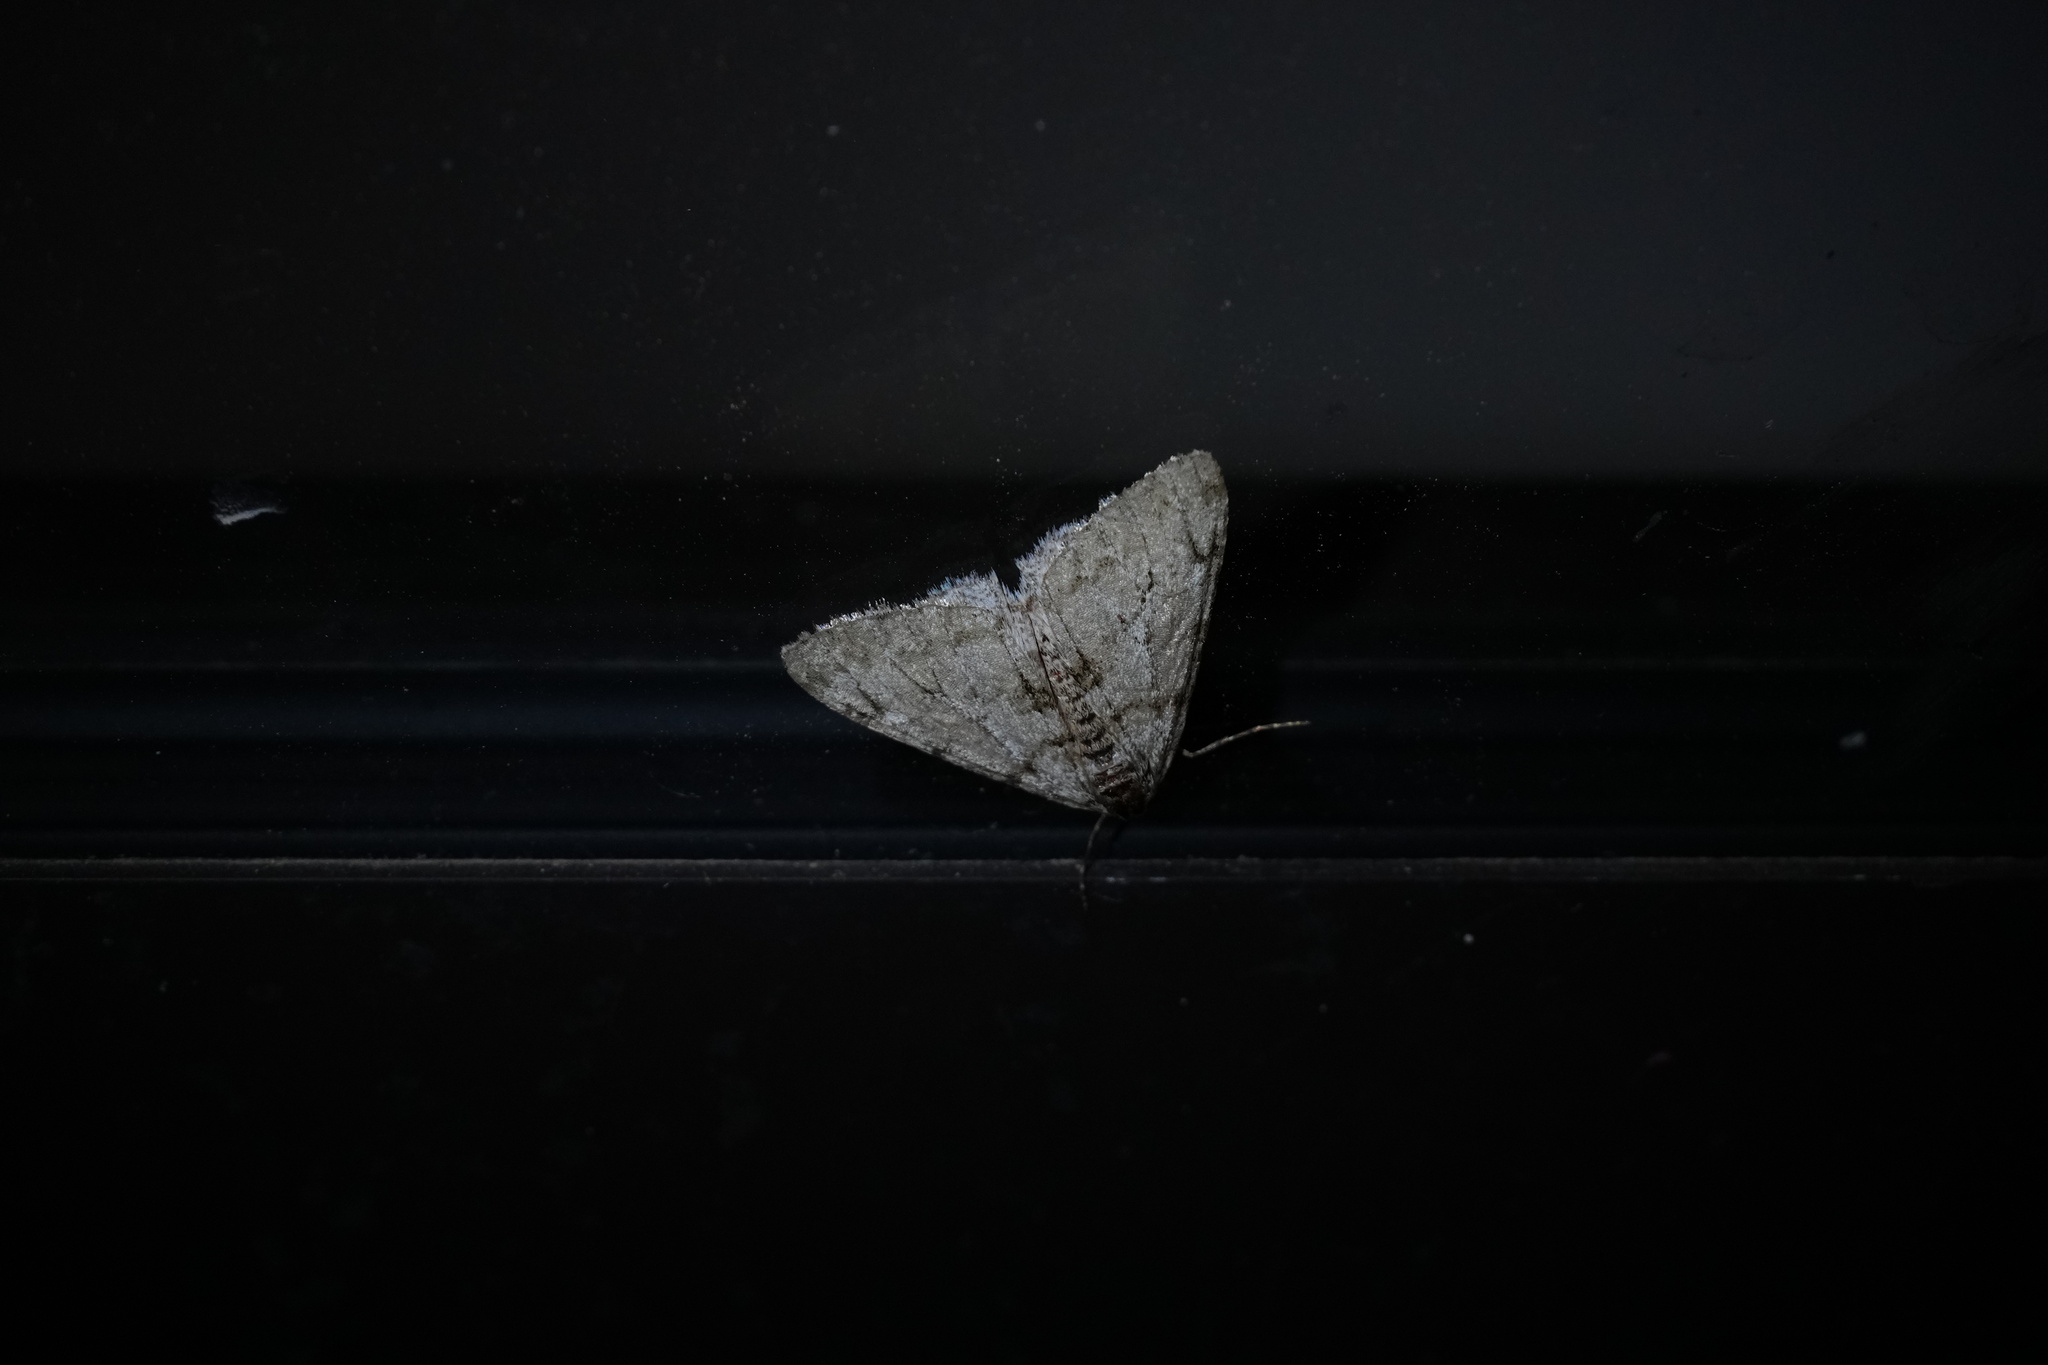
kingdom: Animalia
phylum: Arthropoda
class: Insecta
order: Lepidoptera
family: Geometridae
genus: Phigalia
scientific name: Phigalia strigataria
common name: Small phigalia
